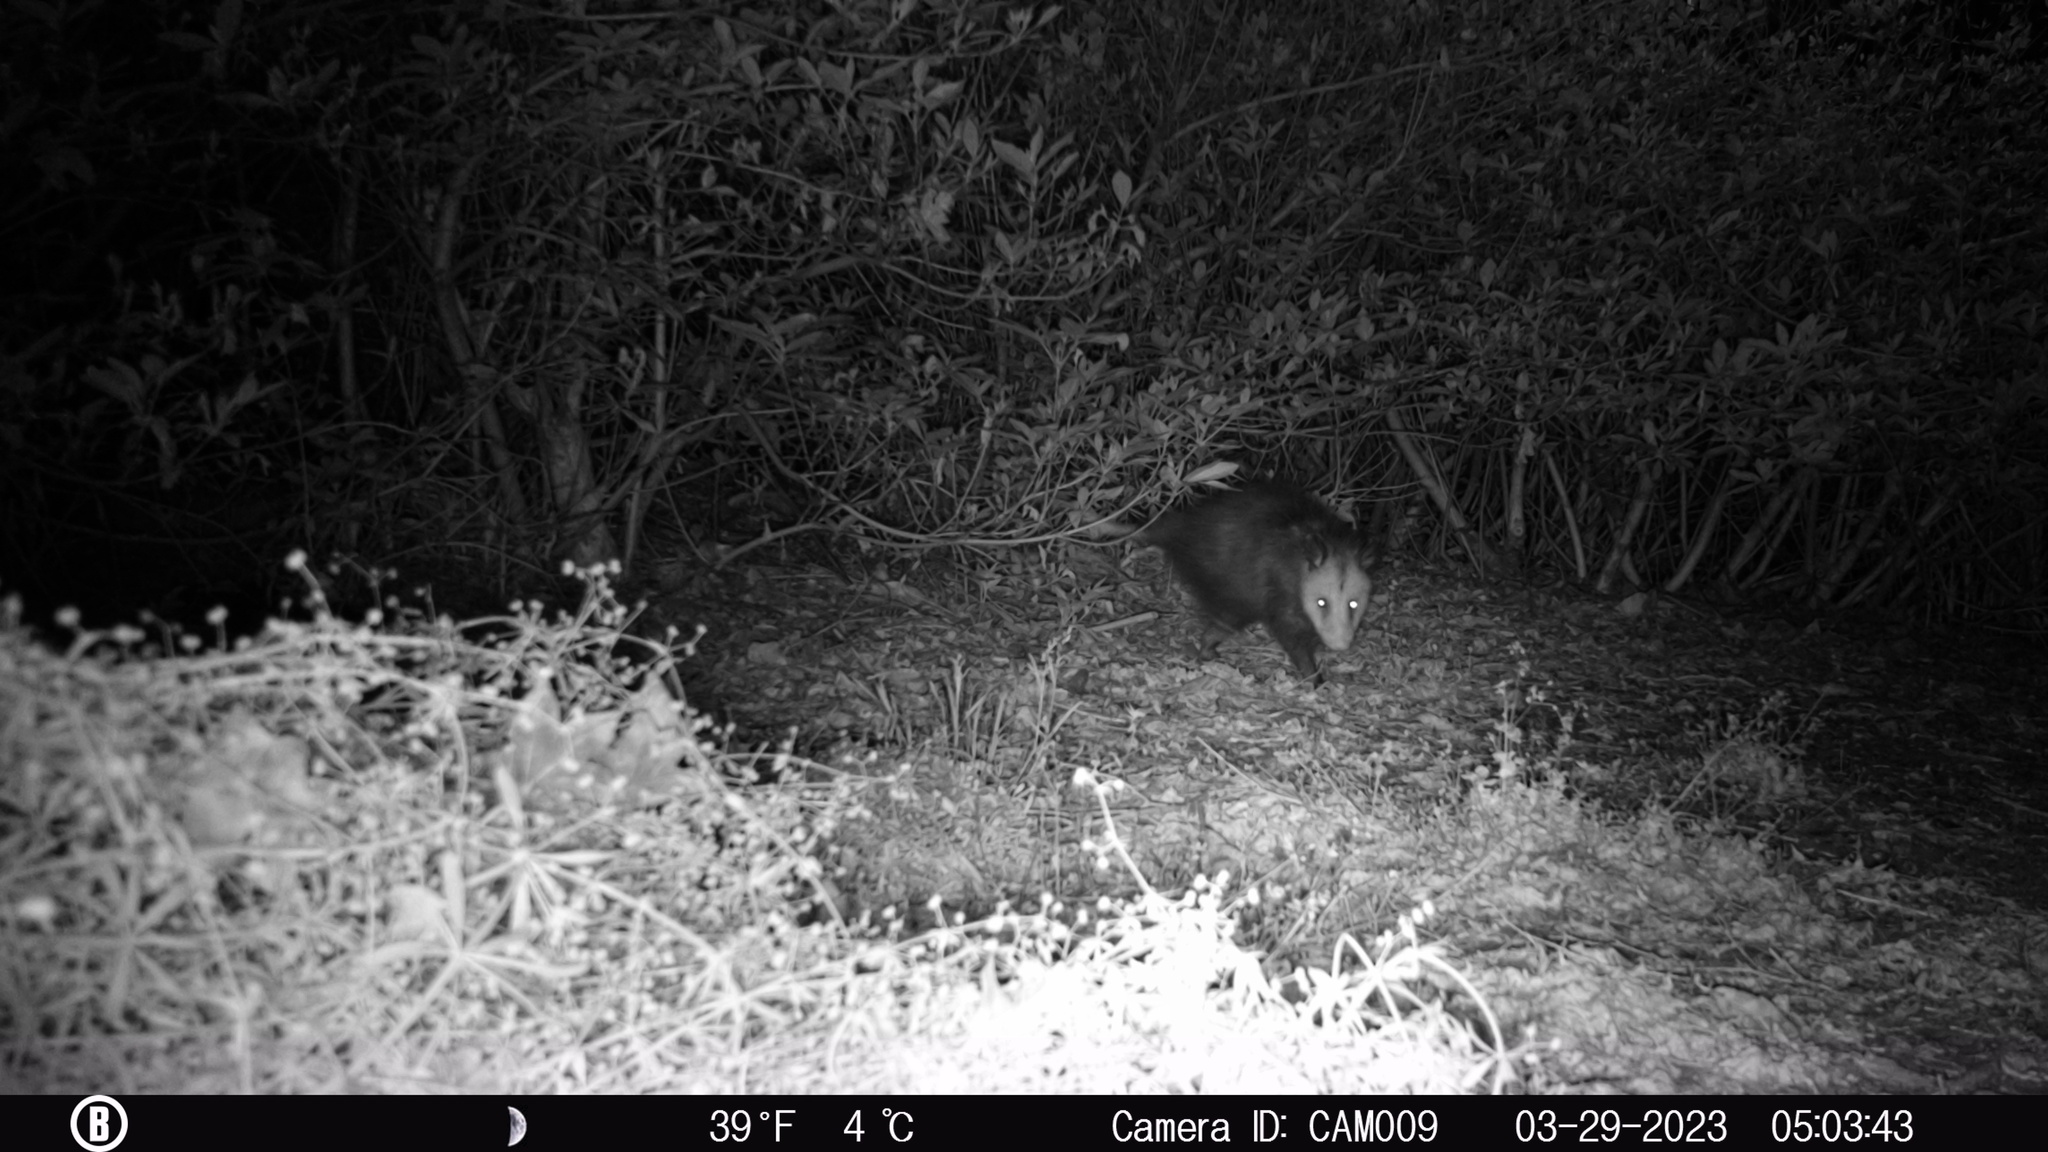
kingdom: Animalia
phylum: Chordata
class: Mammalia
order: Didelphimorphia
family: Didelphidae
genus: Didelphis
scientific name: Didelphis virginiana
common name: Virginia opossum
